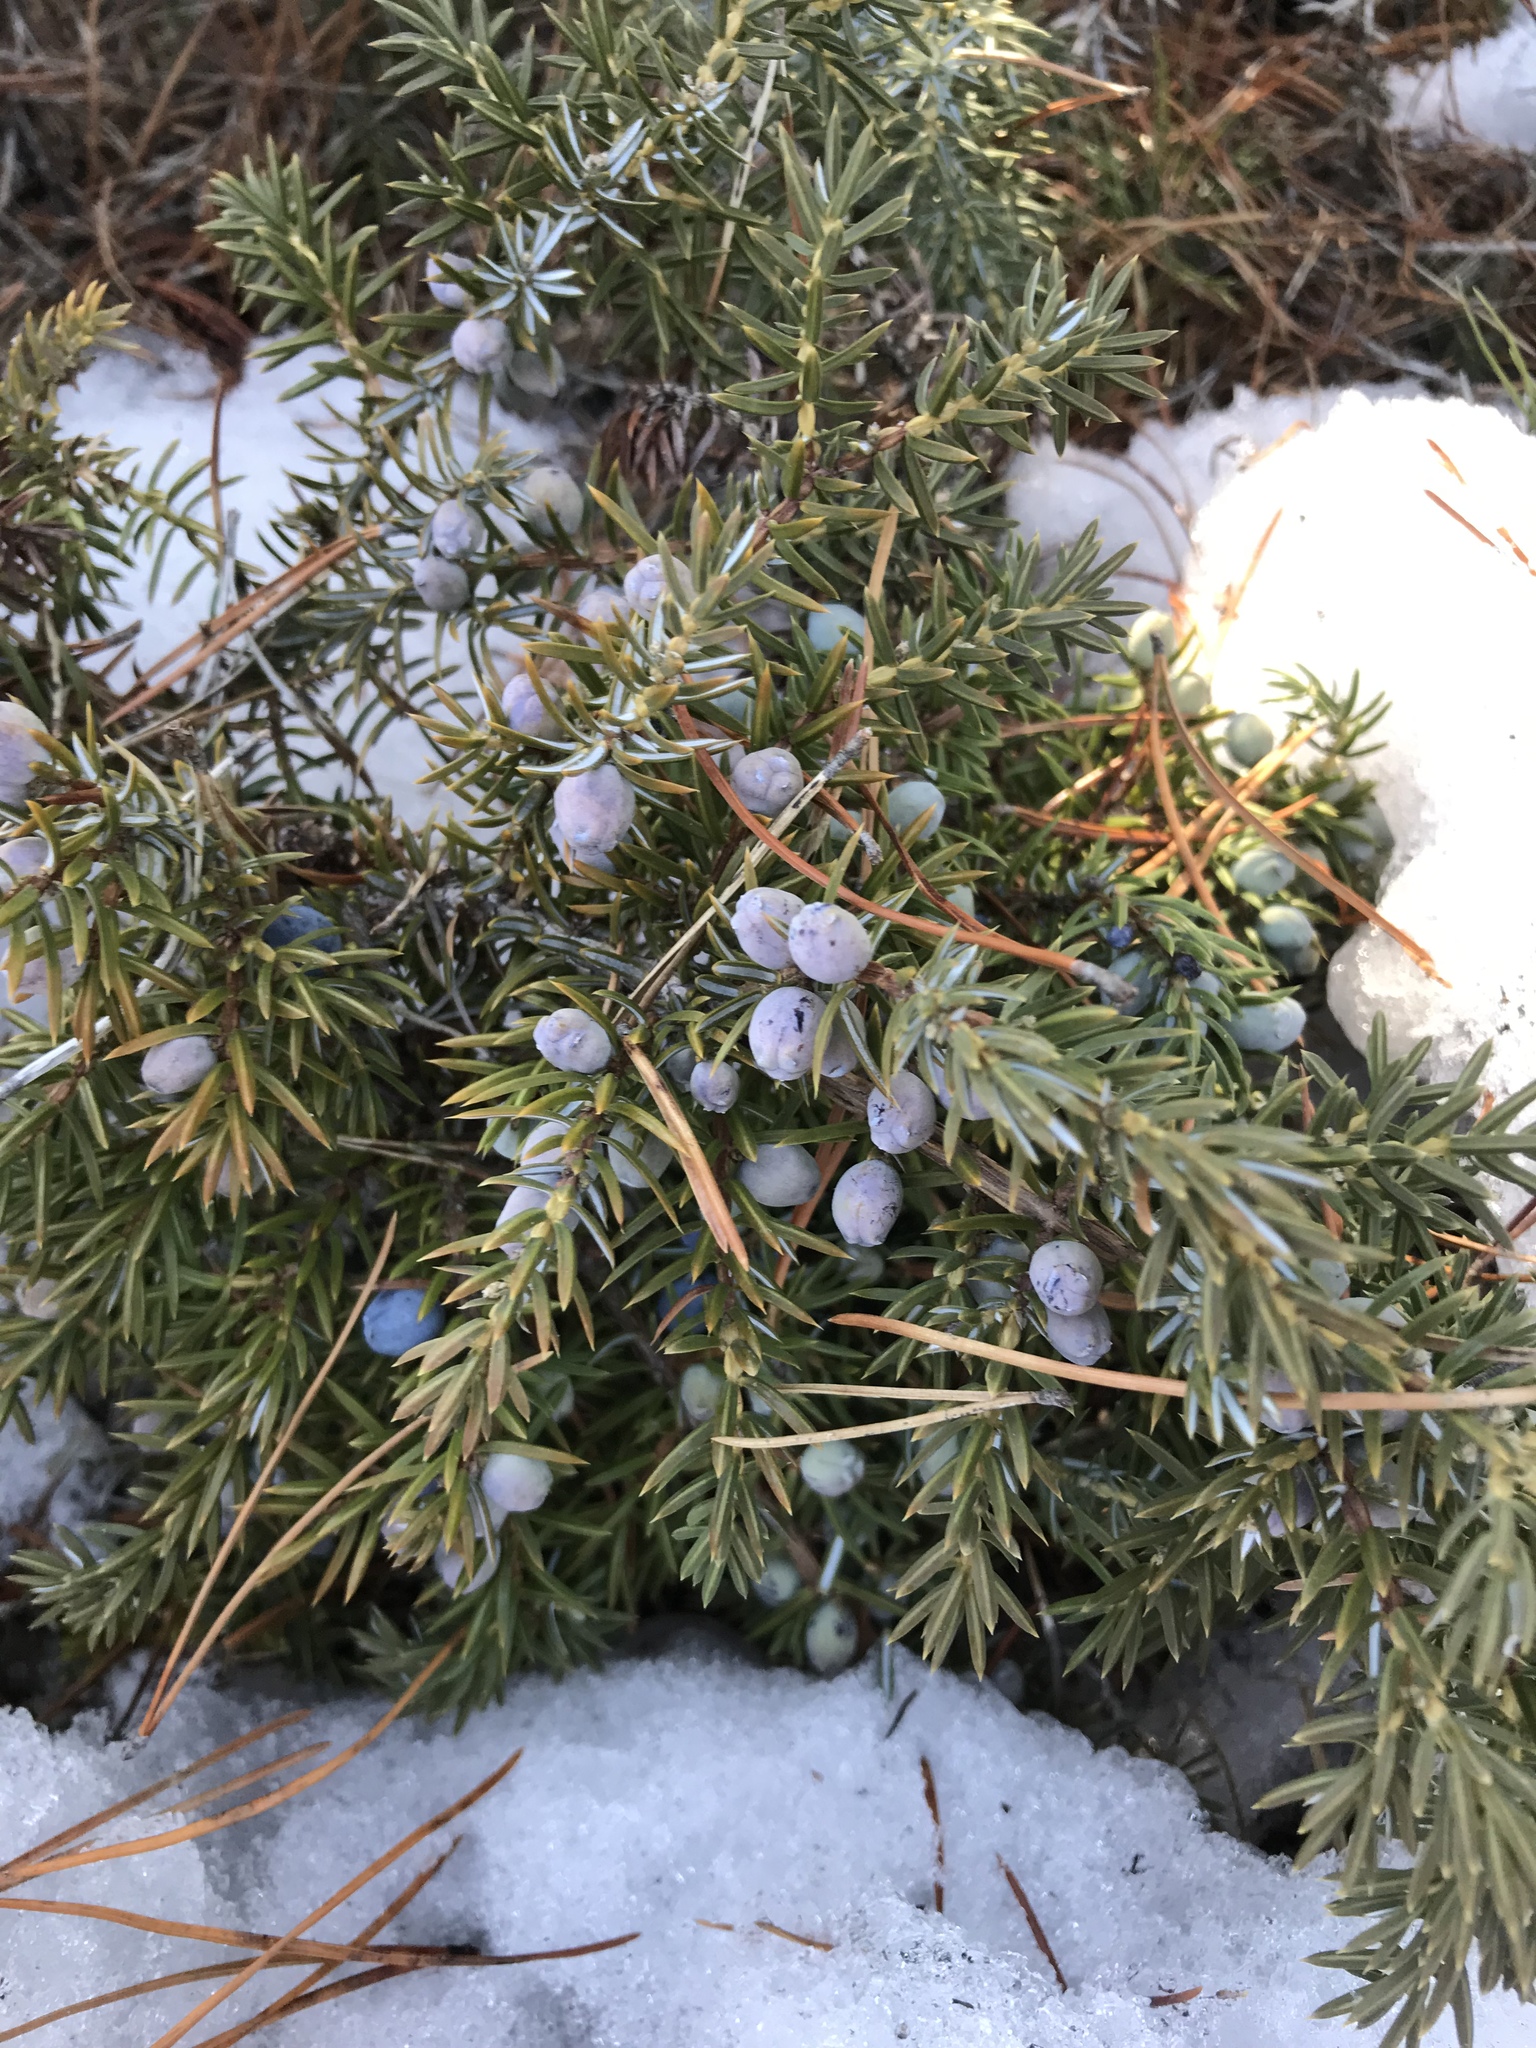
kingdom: Plantae
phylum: Tracheophyta
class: Pinopsida
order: Pinales
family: Cupressaceae
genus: Juniperus
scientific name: Juniperus communis
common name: Common juniper
